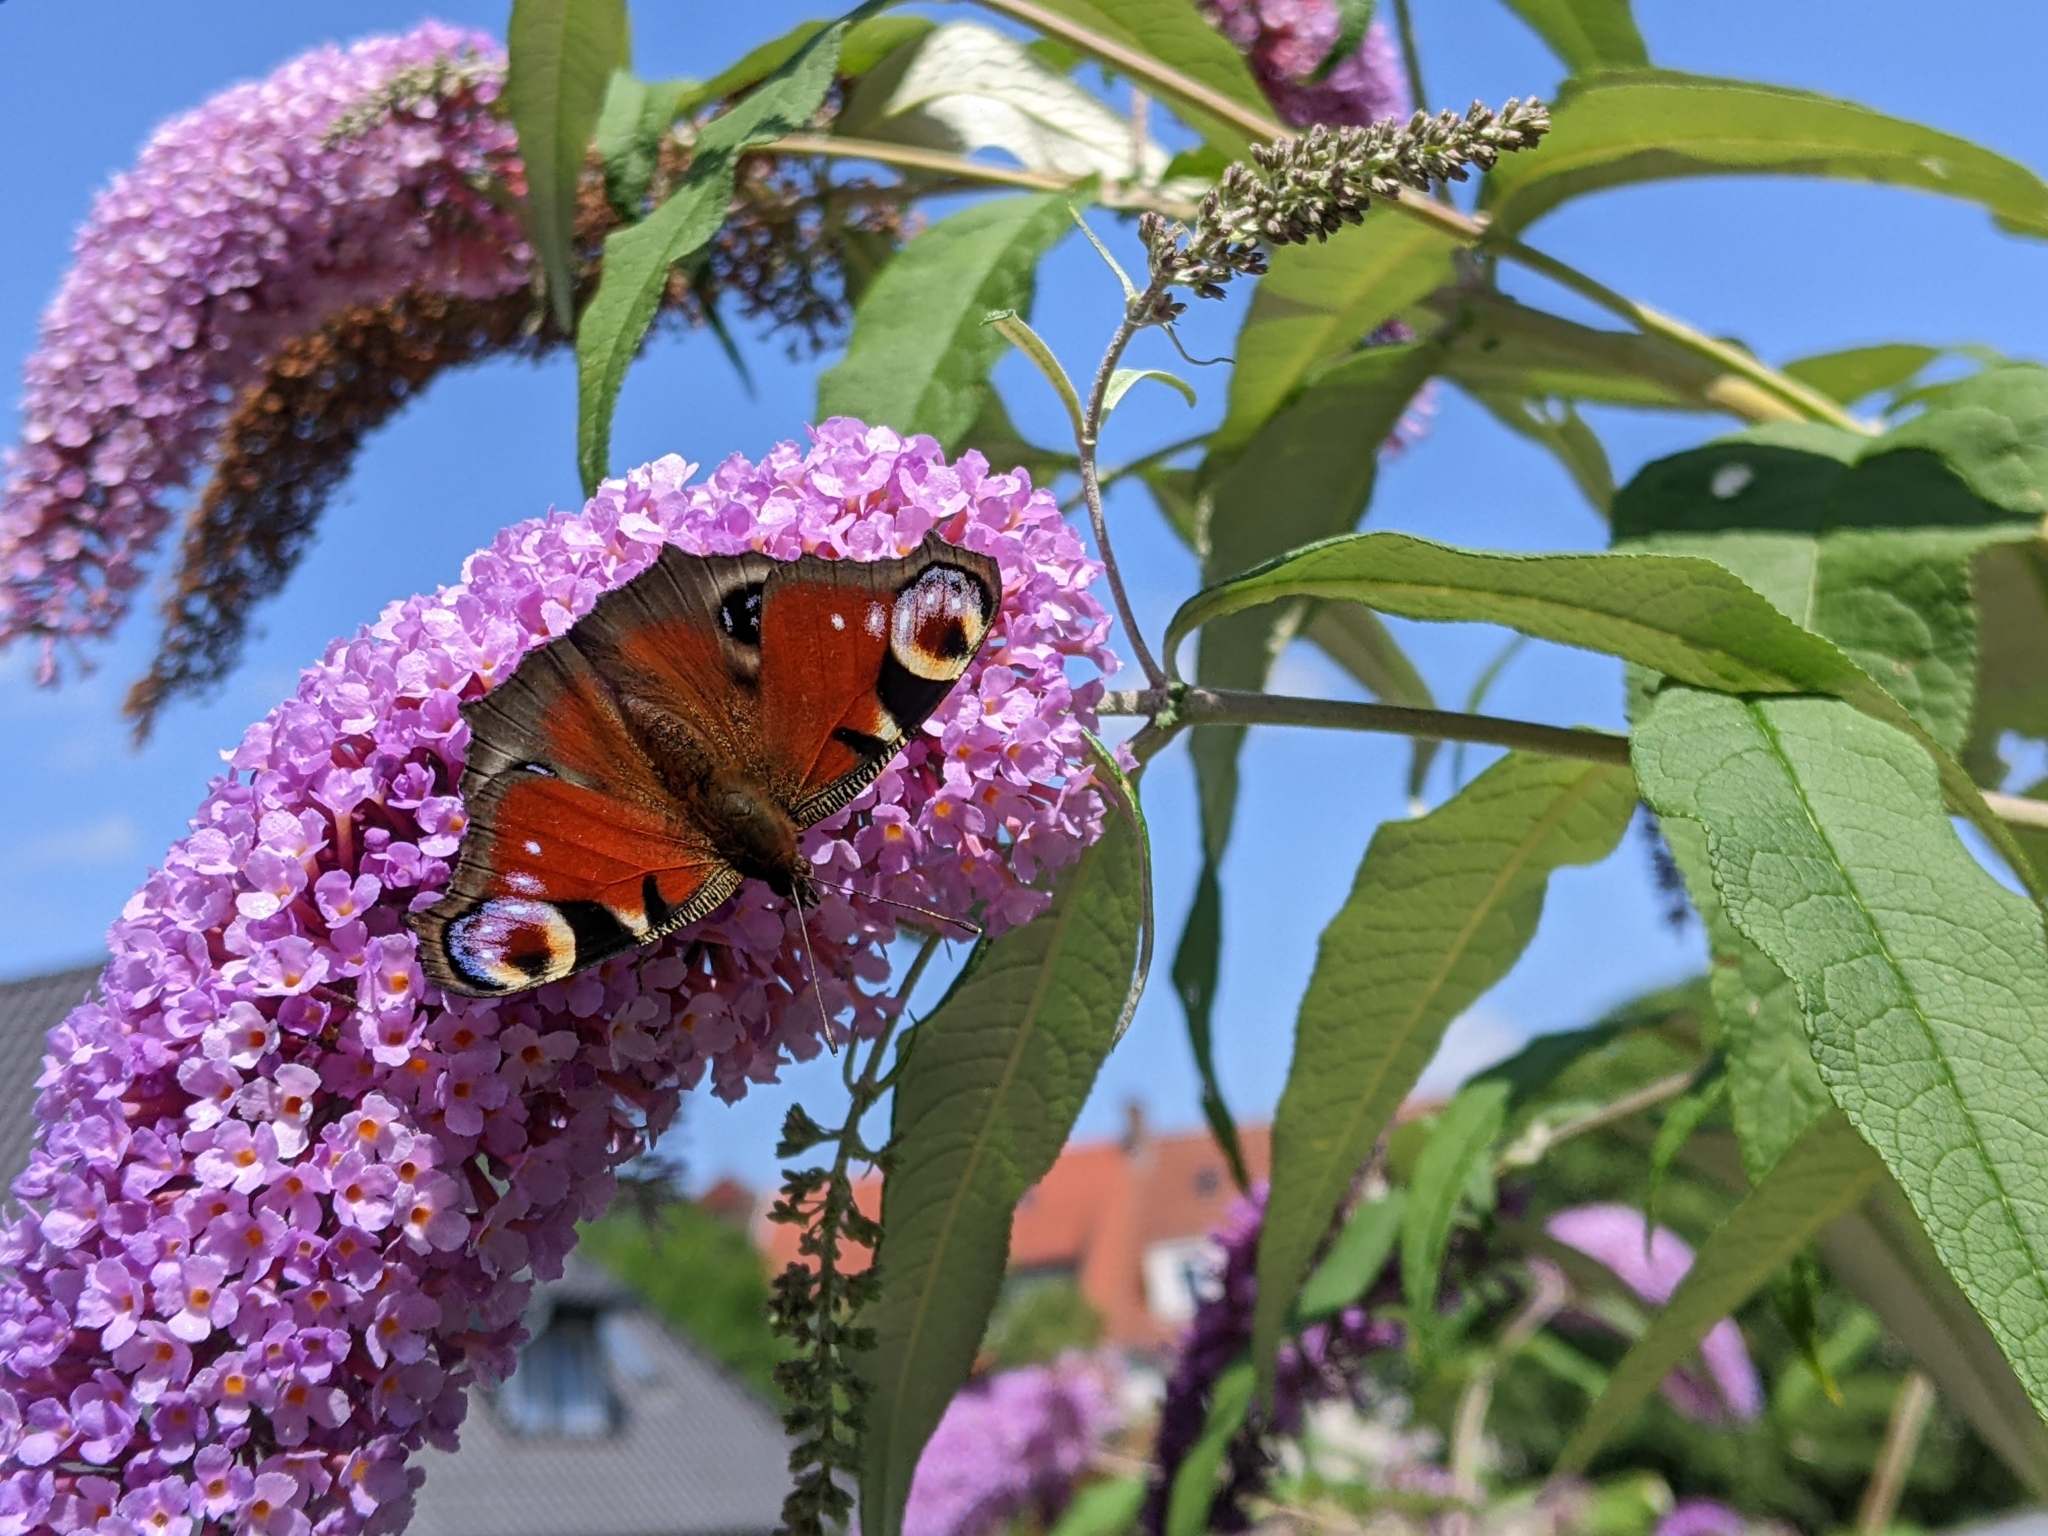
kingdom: Animalia
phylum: Arthropoda
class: Insecta
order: Lepidoptera
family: Nymphalidae
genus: Aglais
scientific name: Aglais io
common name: Peacock
